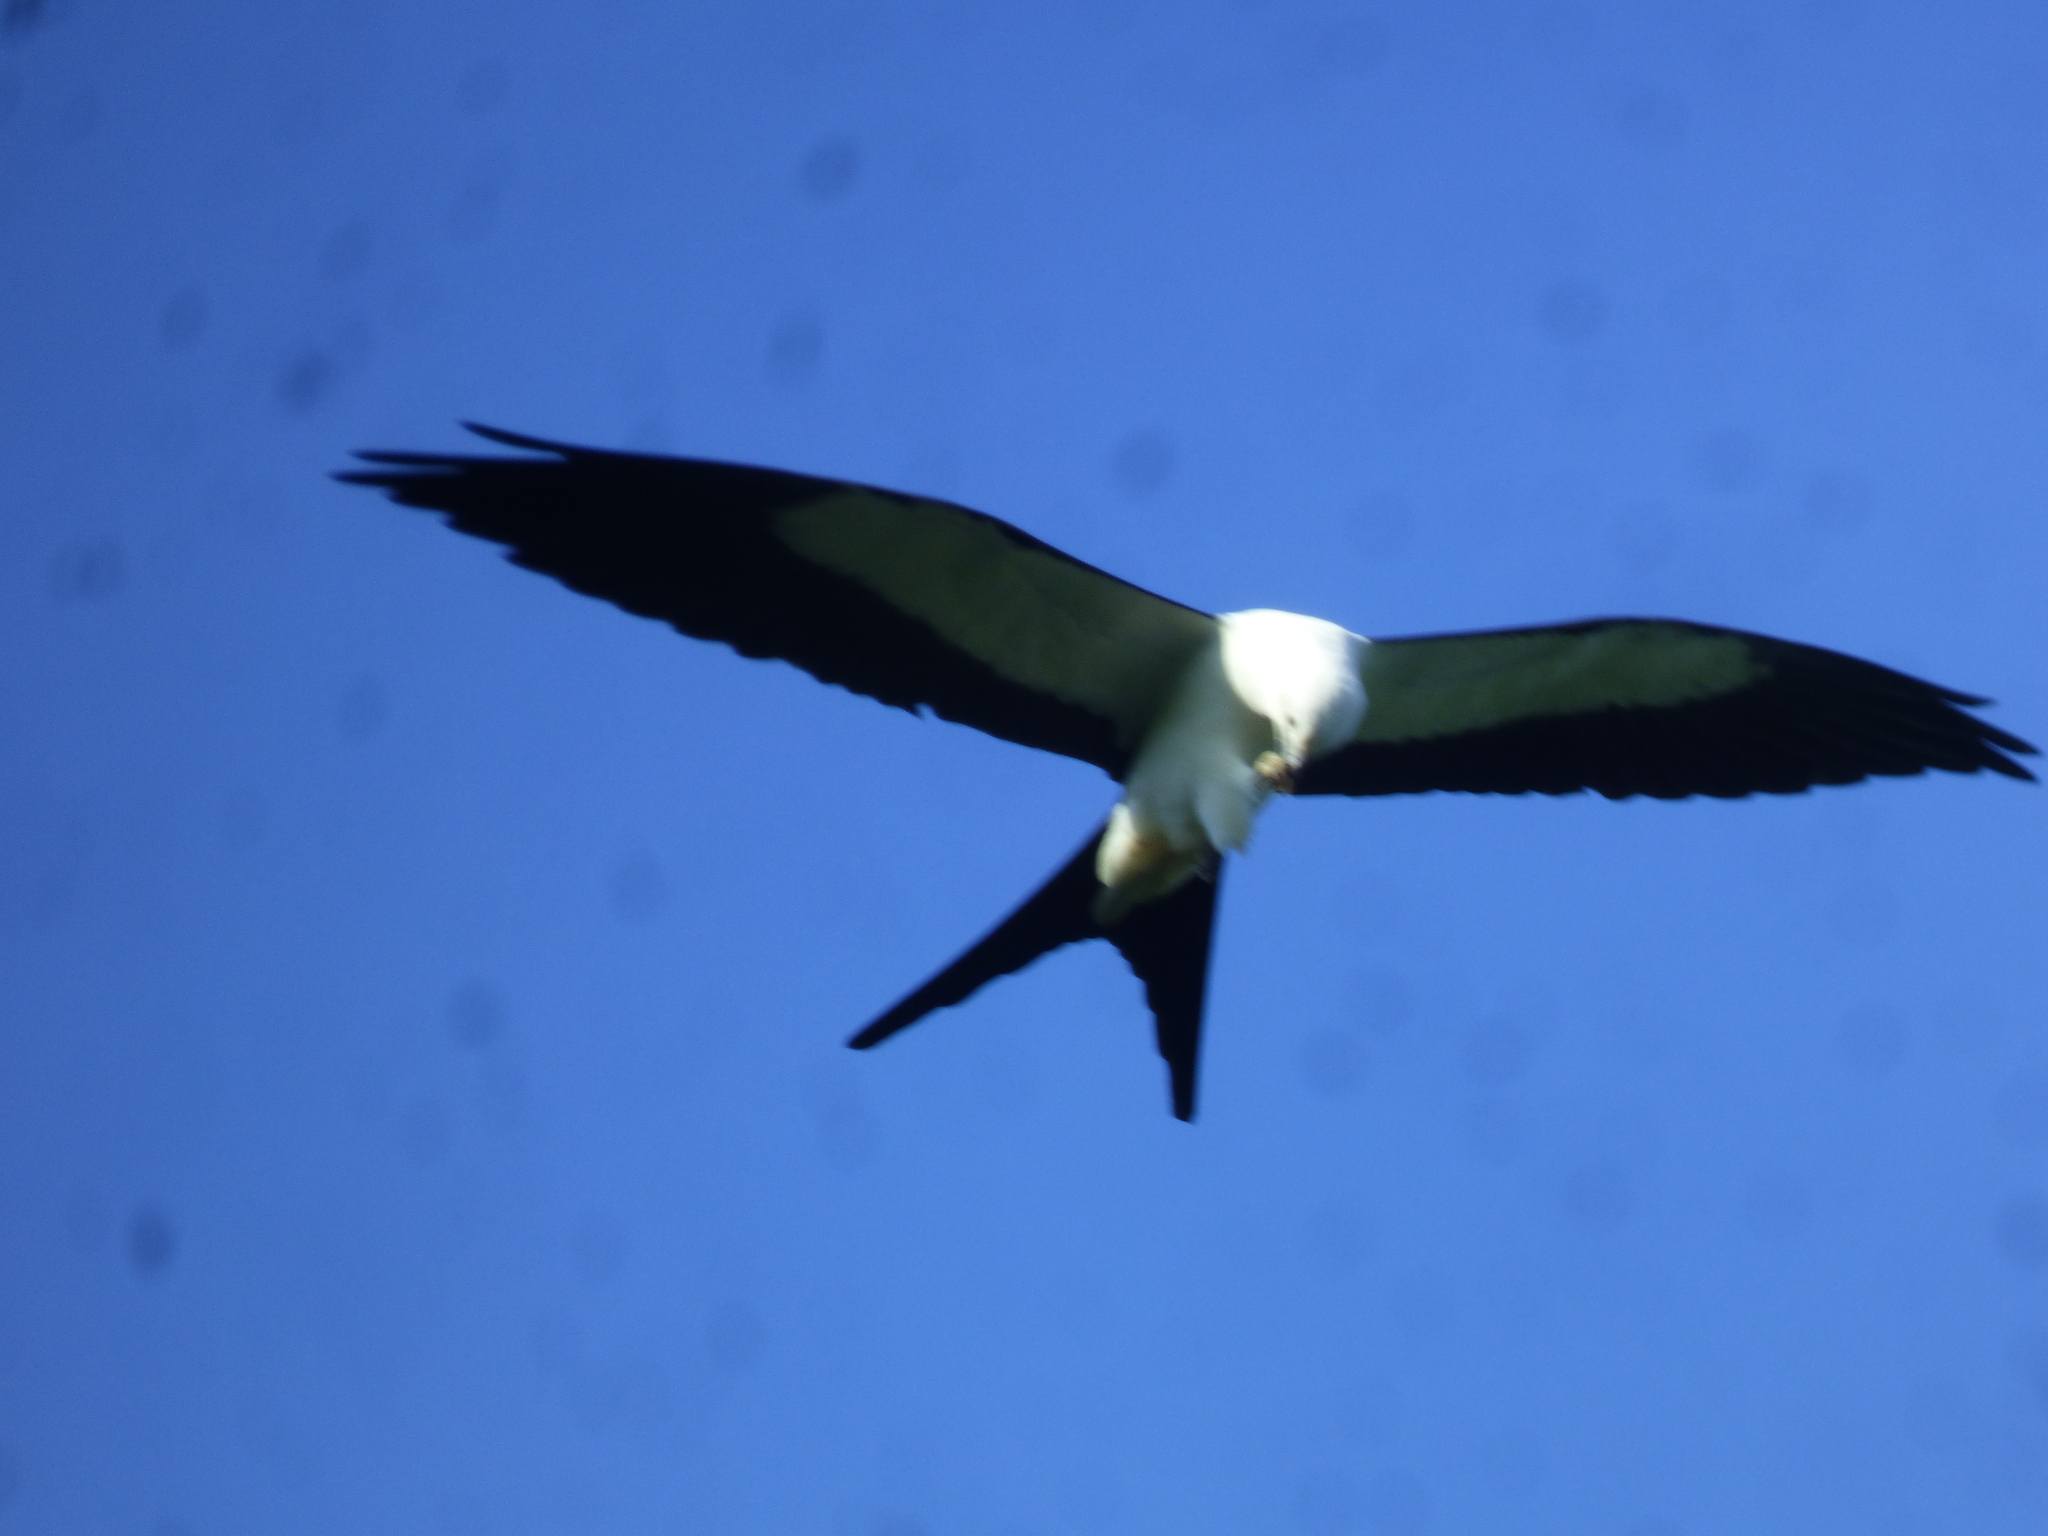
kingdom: Animalia
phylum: Chordata
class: Aves
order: Accipitriformes
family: Accipitridae
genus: Elanoides
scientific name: Elanoides forficatus
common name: Swallow-tailed kite
